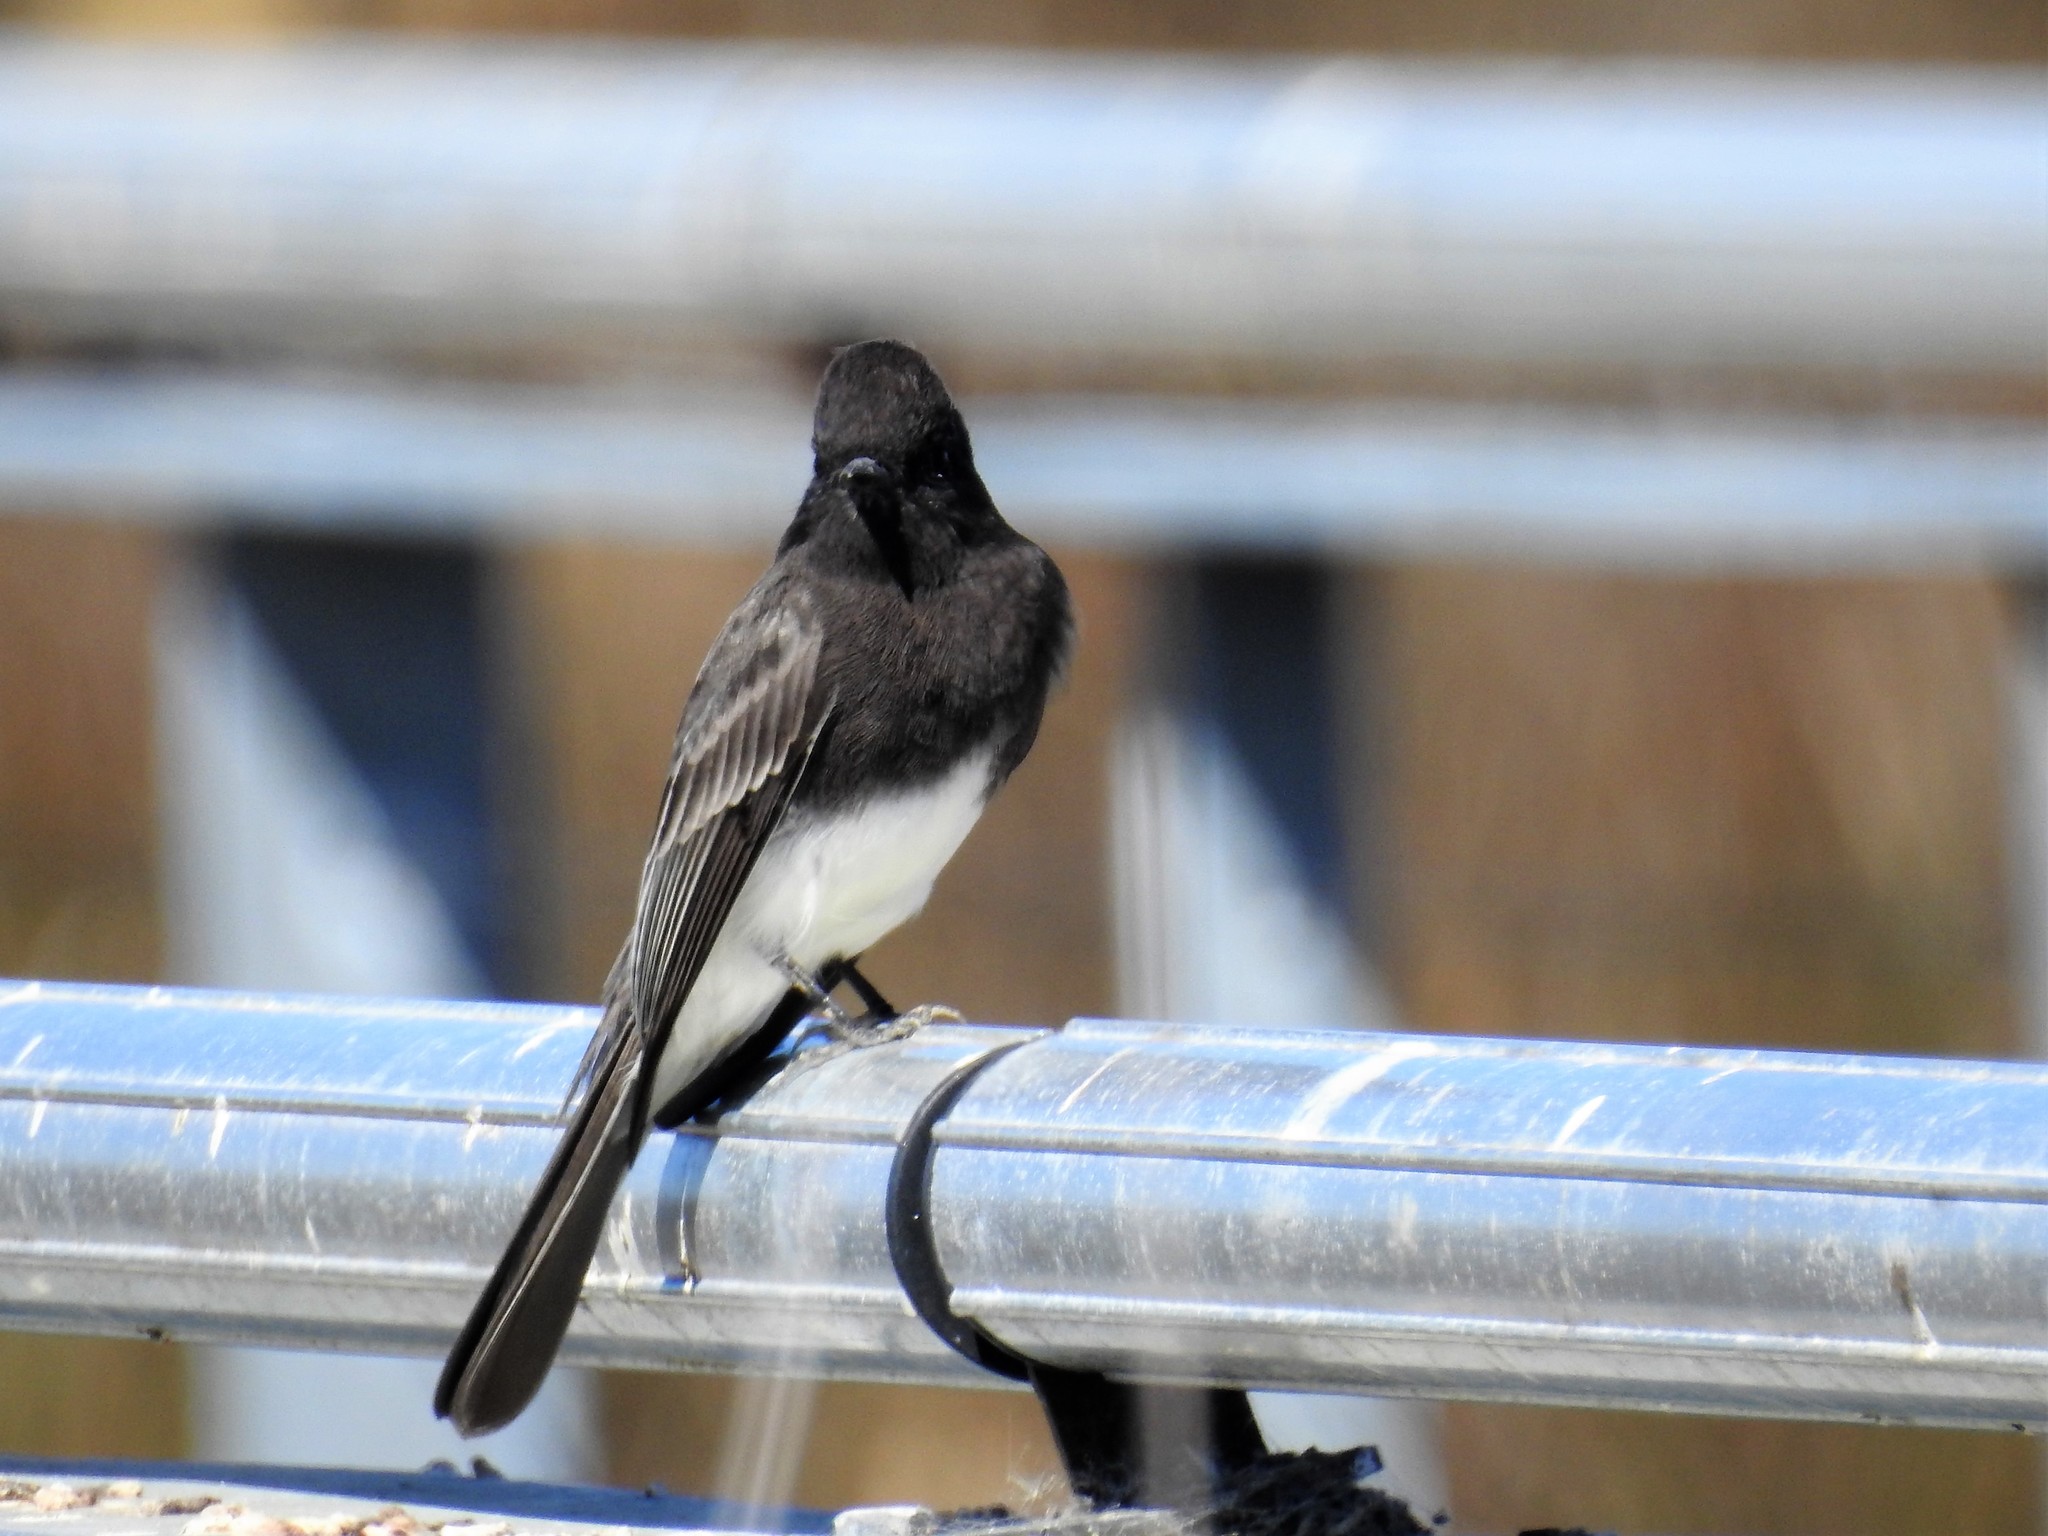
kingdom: Animalia
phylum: Chordata
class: Aves
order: Passeriformes
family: Tyrannidae
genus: Sayornis
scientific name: Sayornis nigricans
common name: Black phoebe
